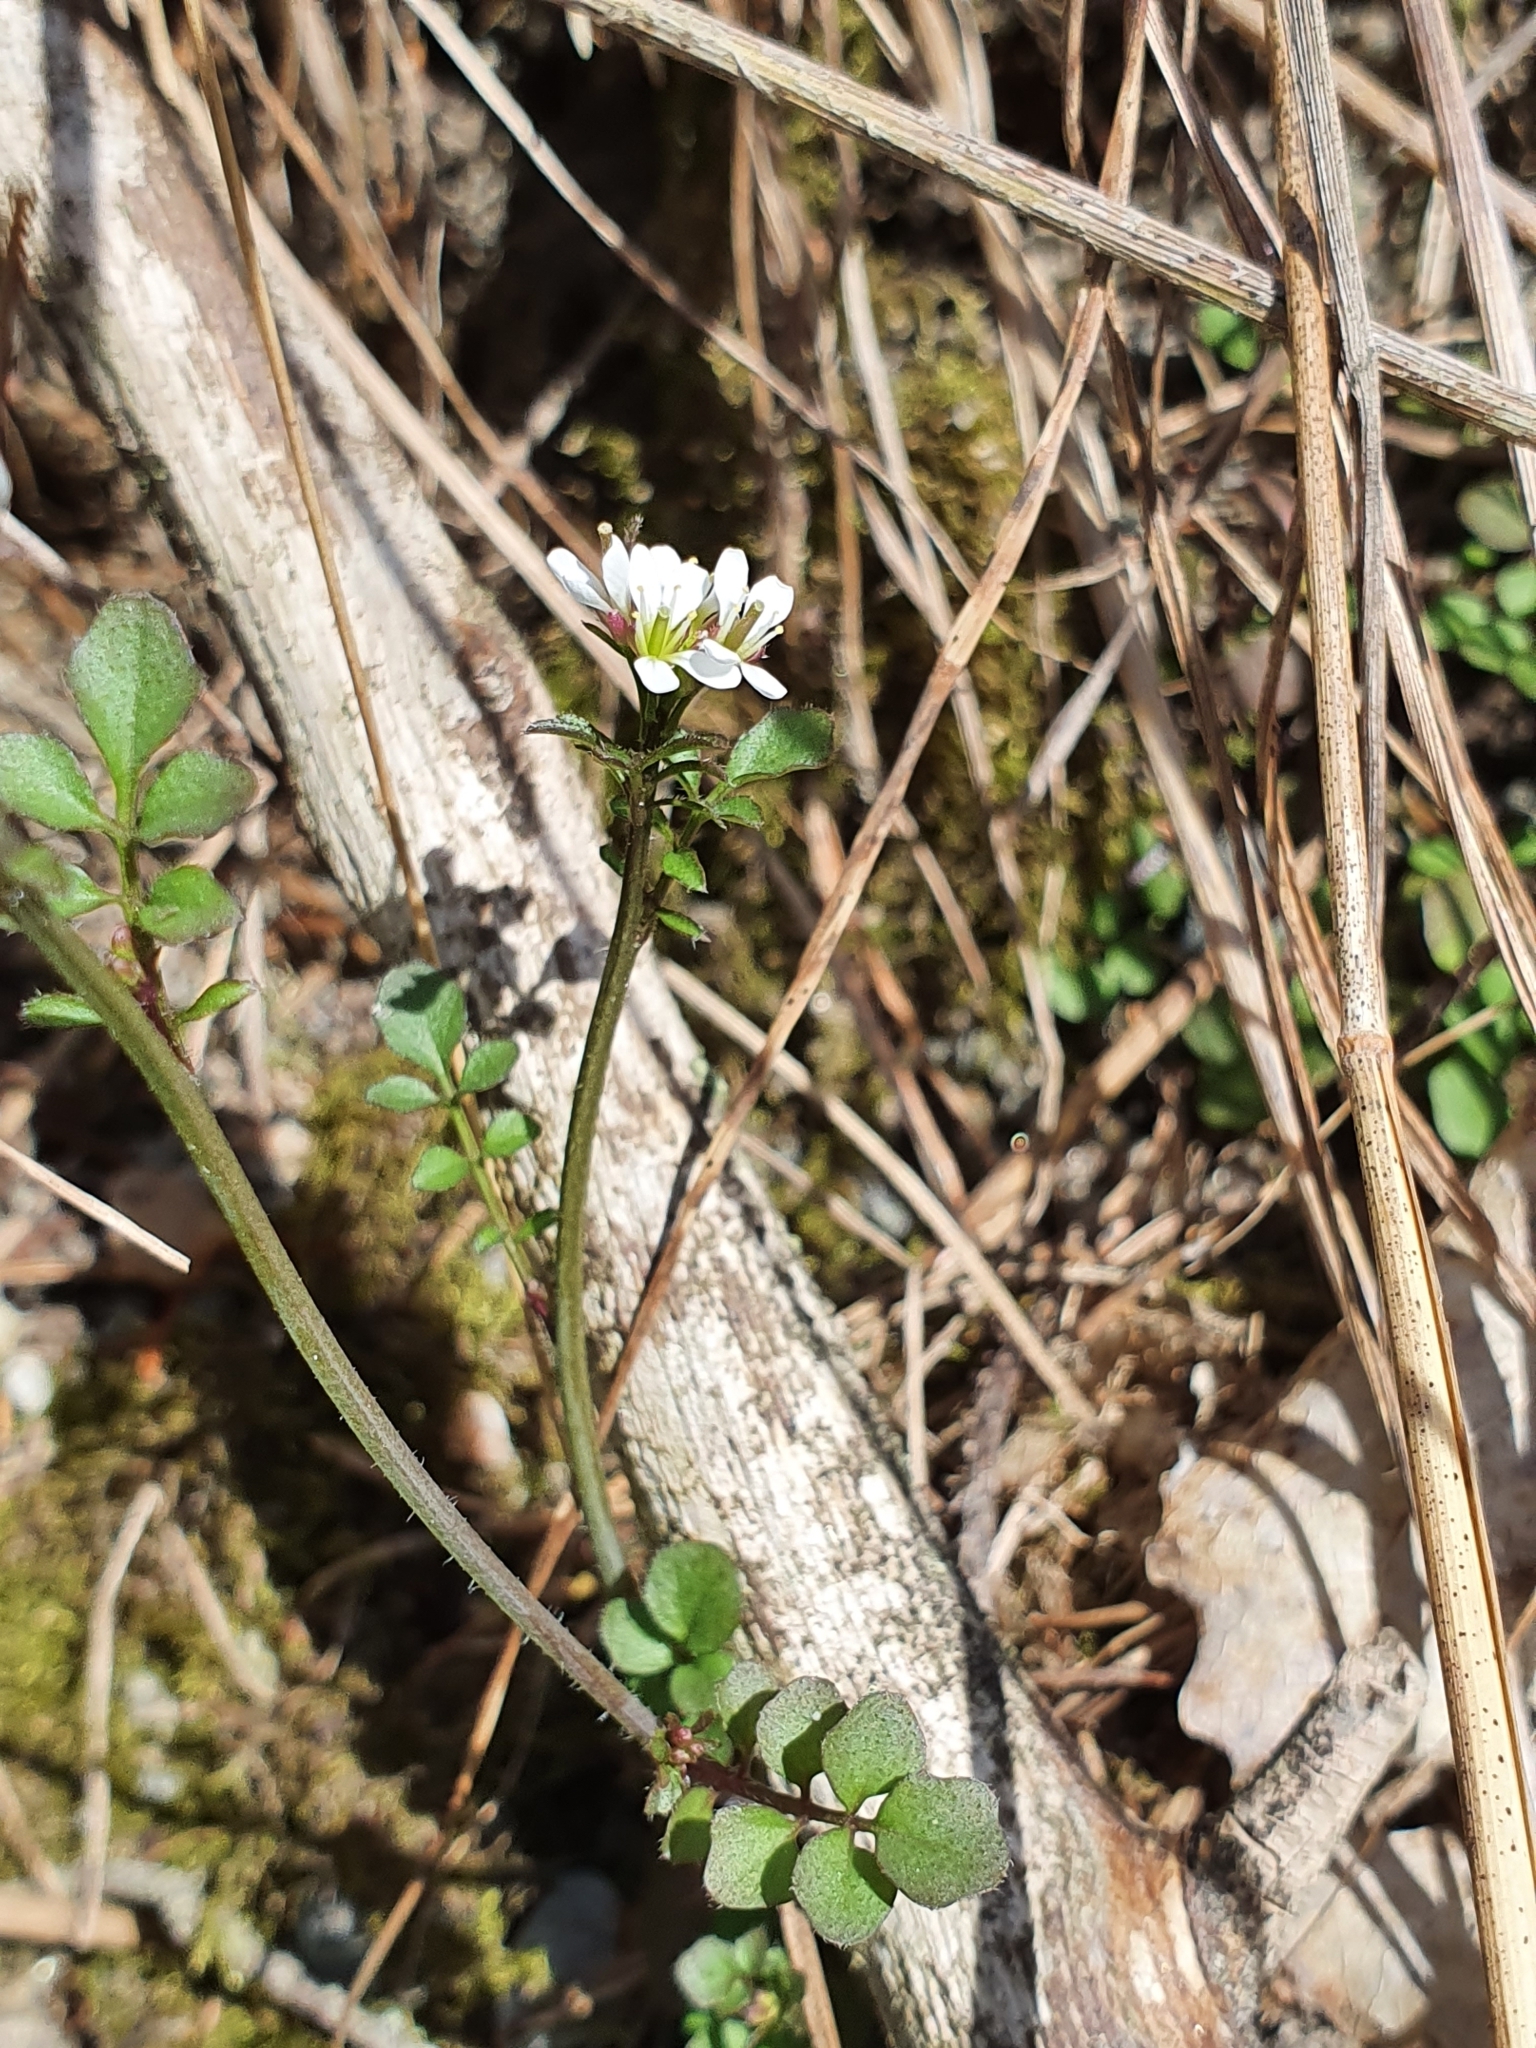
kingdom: Plantae
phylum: Tracheophyta
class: Magnoliopsida
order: Brassicales
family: Brassicaceae
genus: Cardamine
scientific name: Cardamine hirsuta
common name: Hairy bittercress
